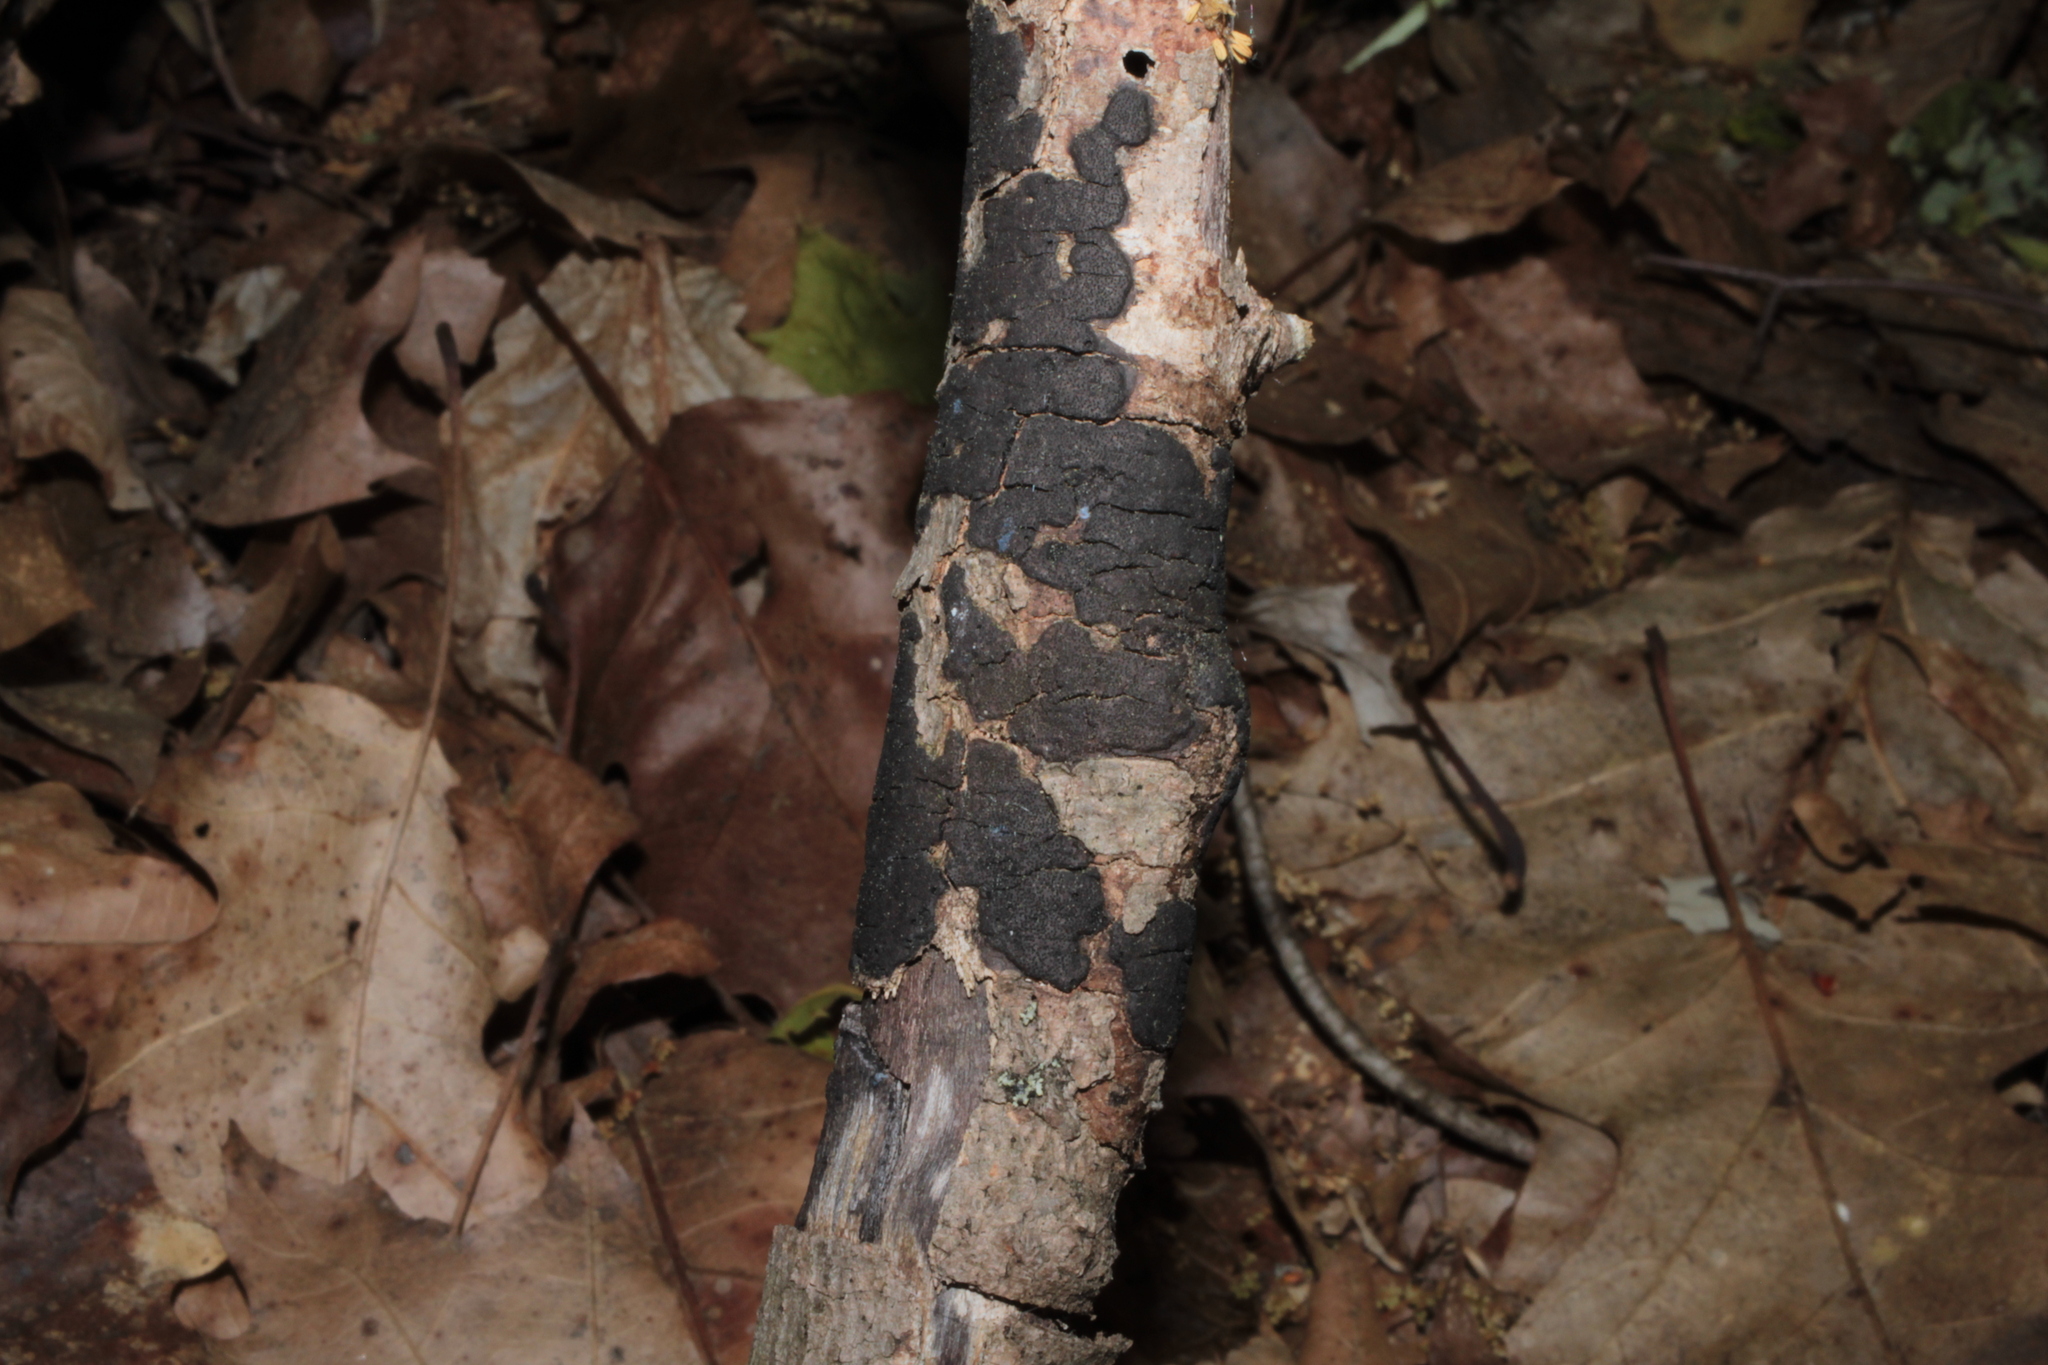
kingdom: Fungi
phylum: Ascomycota
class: Sordariomycetes
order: Xylariales
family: Diatrypaceae
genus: Diatrype
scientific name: Diatrype stigma
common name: Common tarcrust
